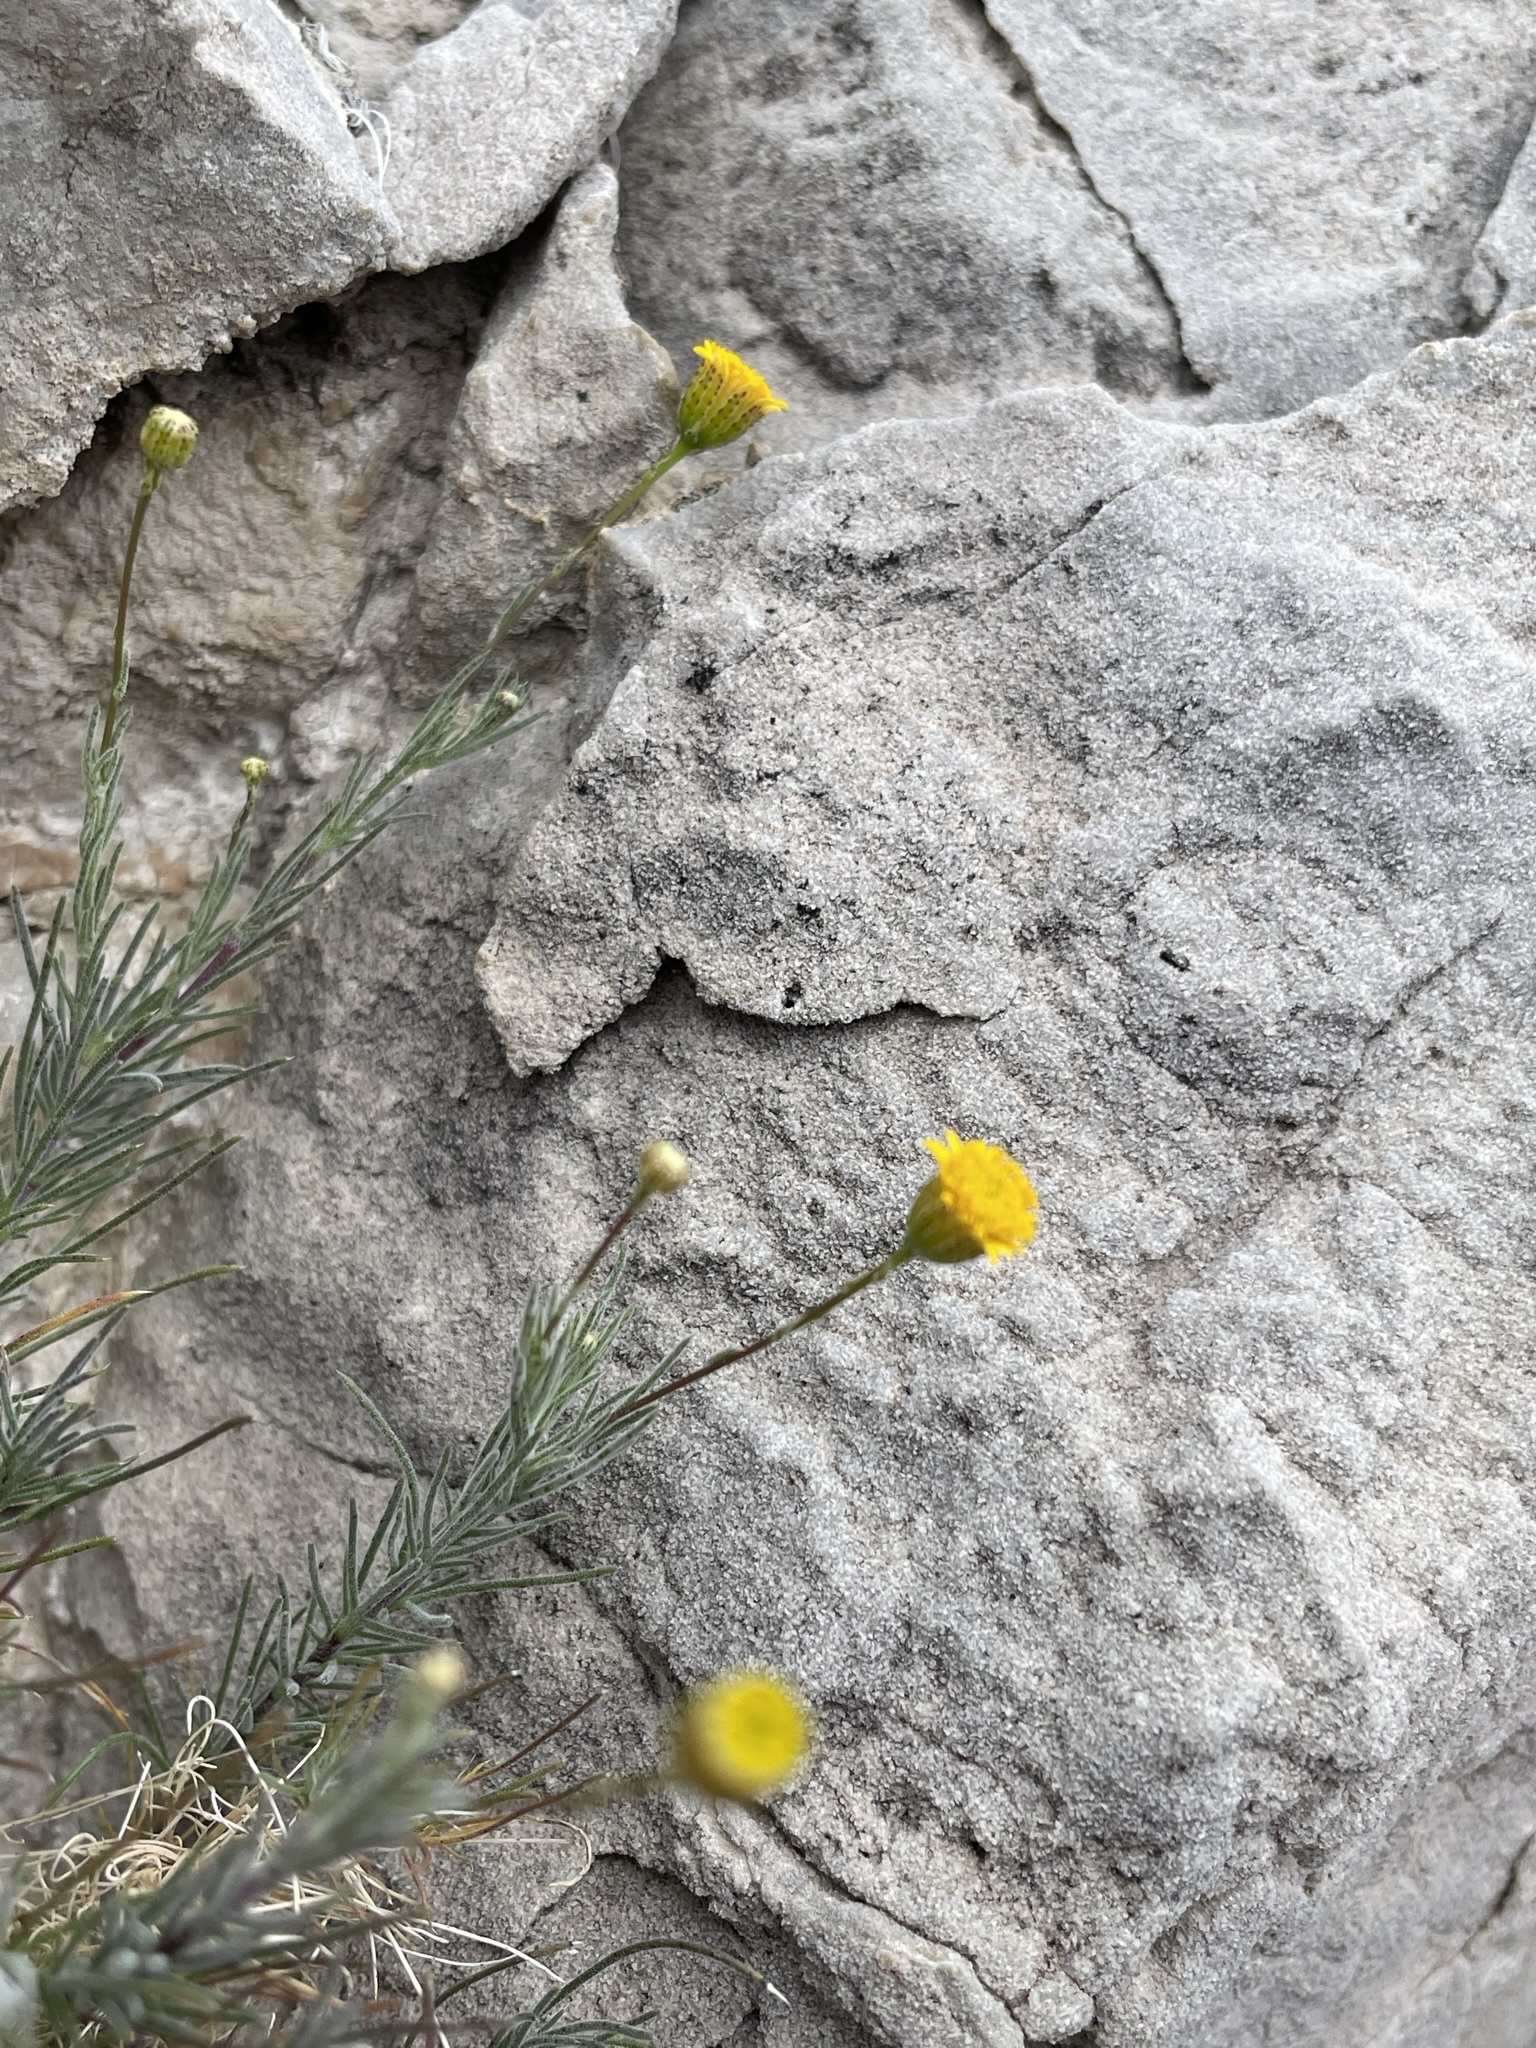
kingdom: Plantae
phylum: Tracheophyta
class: Magnoliopsida
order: Asterales
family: Asteraceae
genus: Thymophylla
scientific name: Thymophylla pentachaeta
